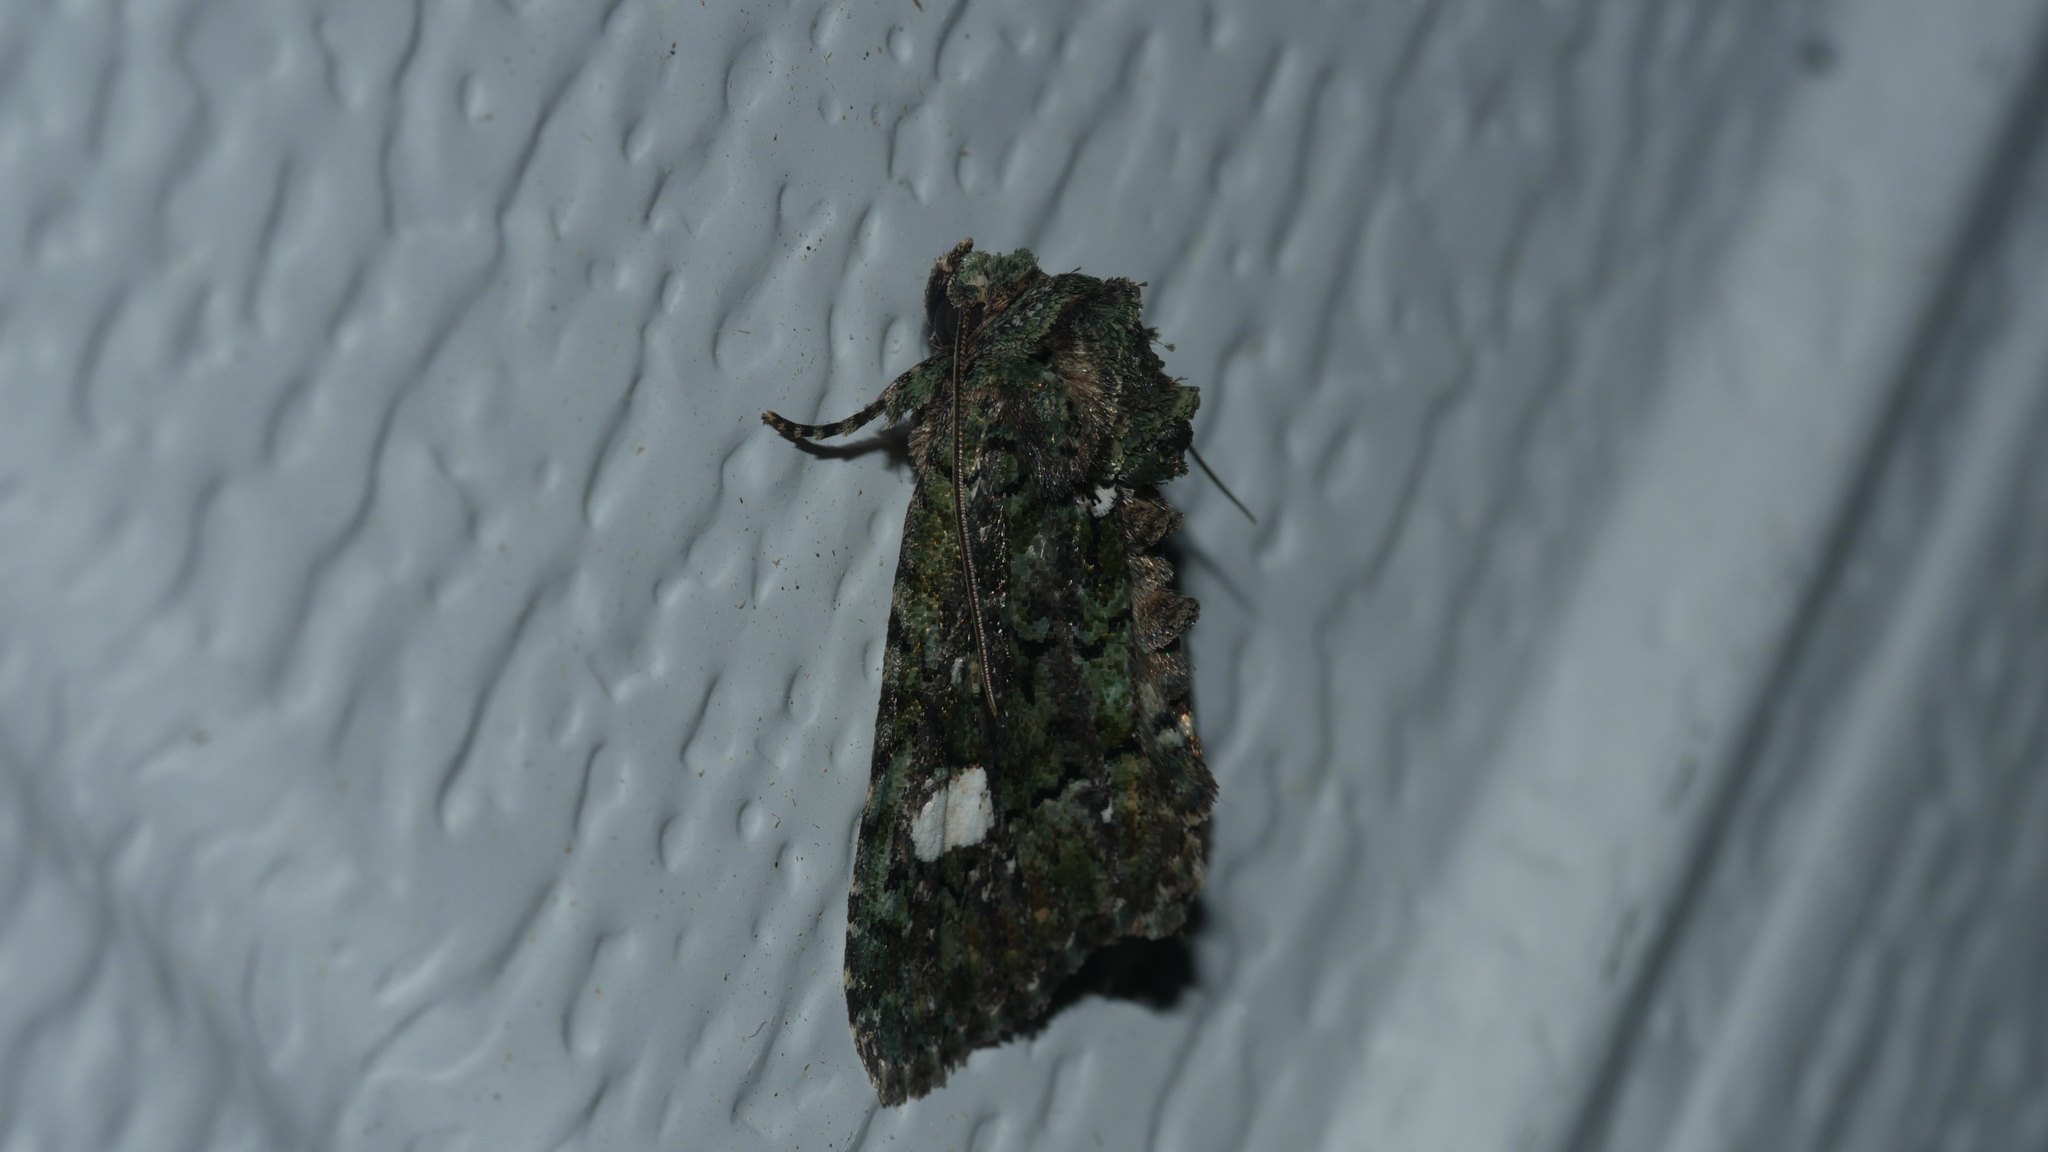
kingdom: Animalia
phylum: Arthropoda
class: Insecta
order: Lepidoptera
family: Noctuidae
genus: Phosphila
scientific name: Phosphila miselioides
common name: Spotted phosphila moth
